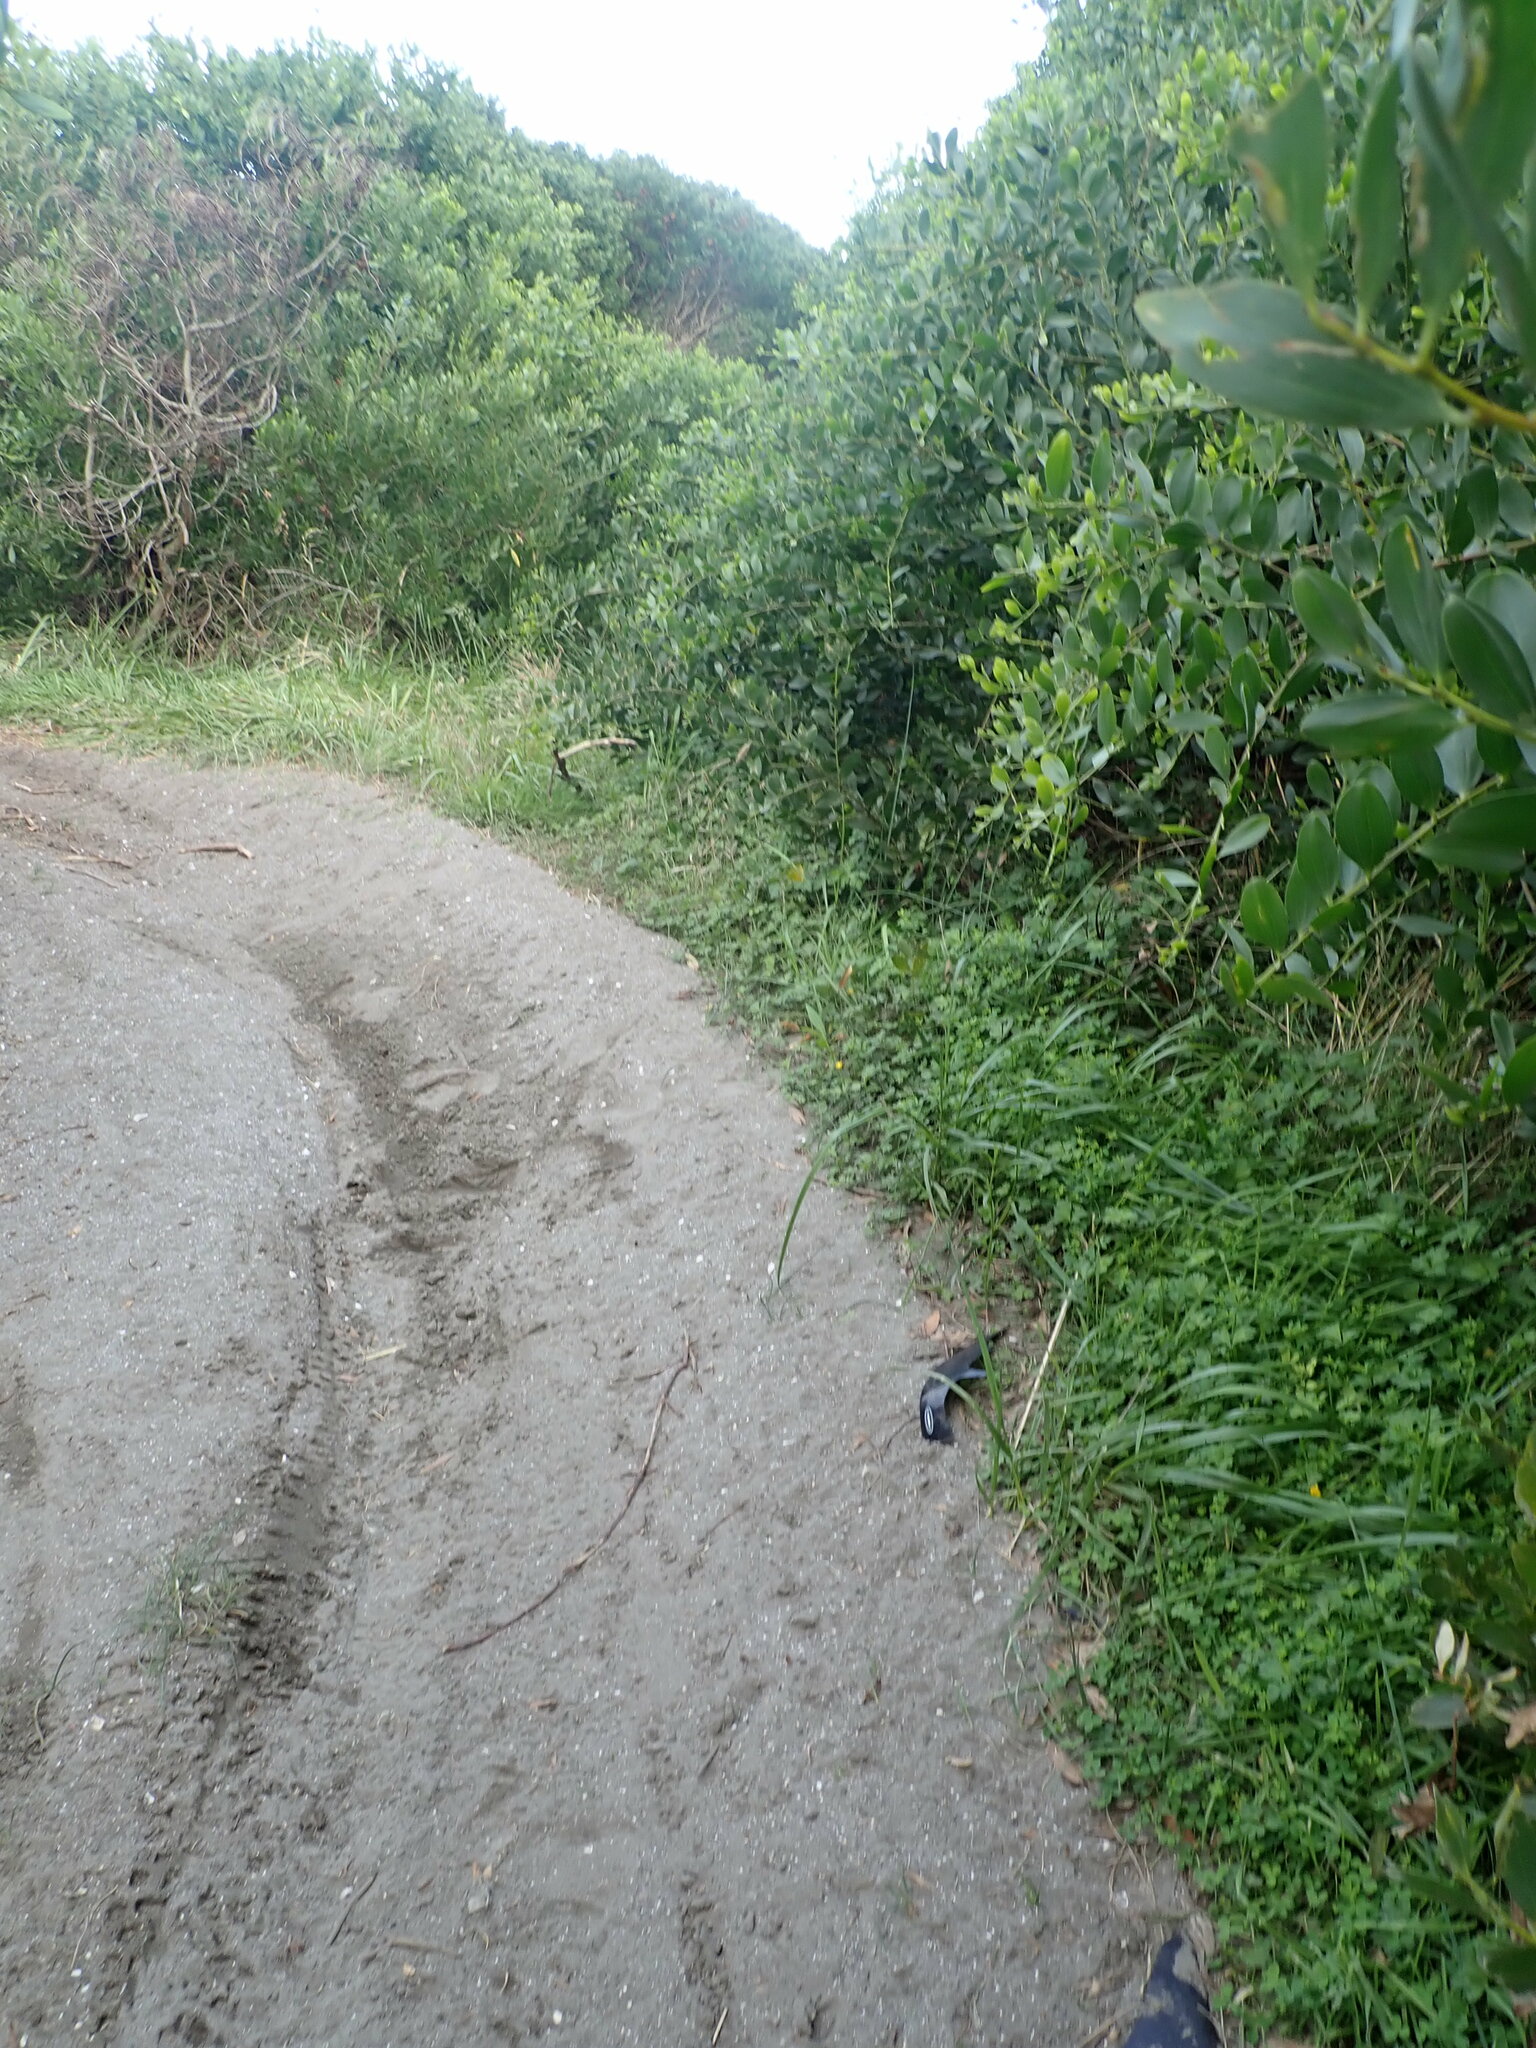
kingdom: Plantae
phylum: Tracheophyta
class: Magnoliopsida
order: Ranunculales
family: Ranunculaceae
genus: Ranunculus
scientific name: Ranunculus repens
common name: Creeping buttercup
